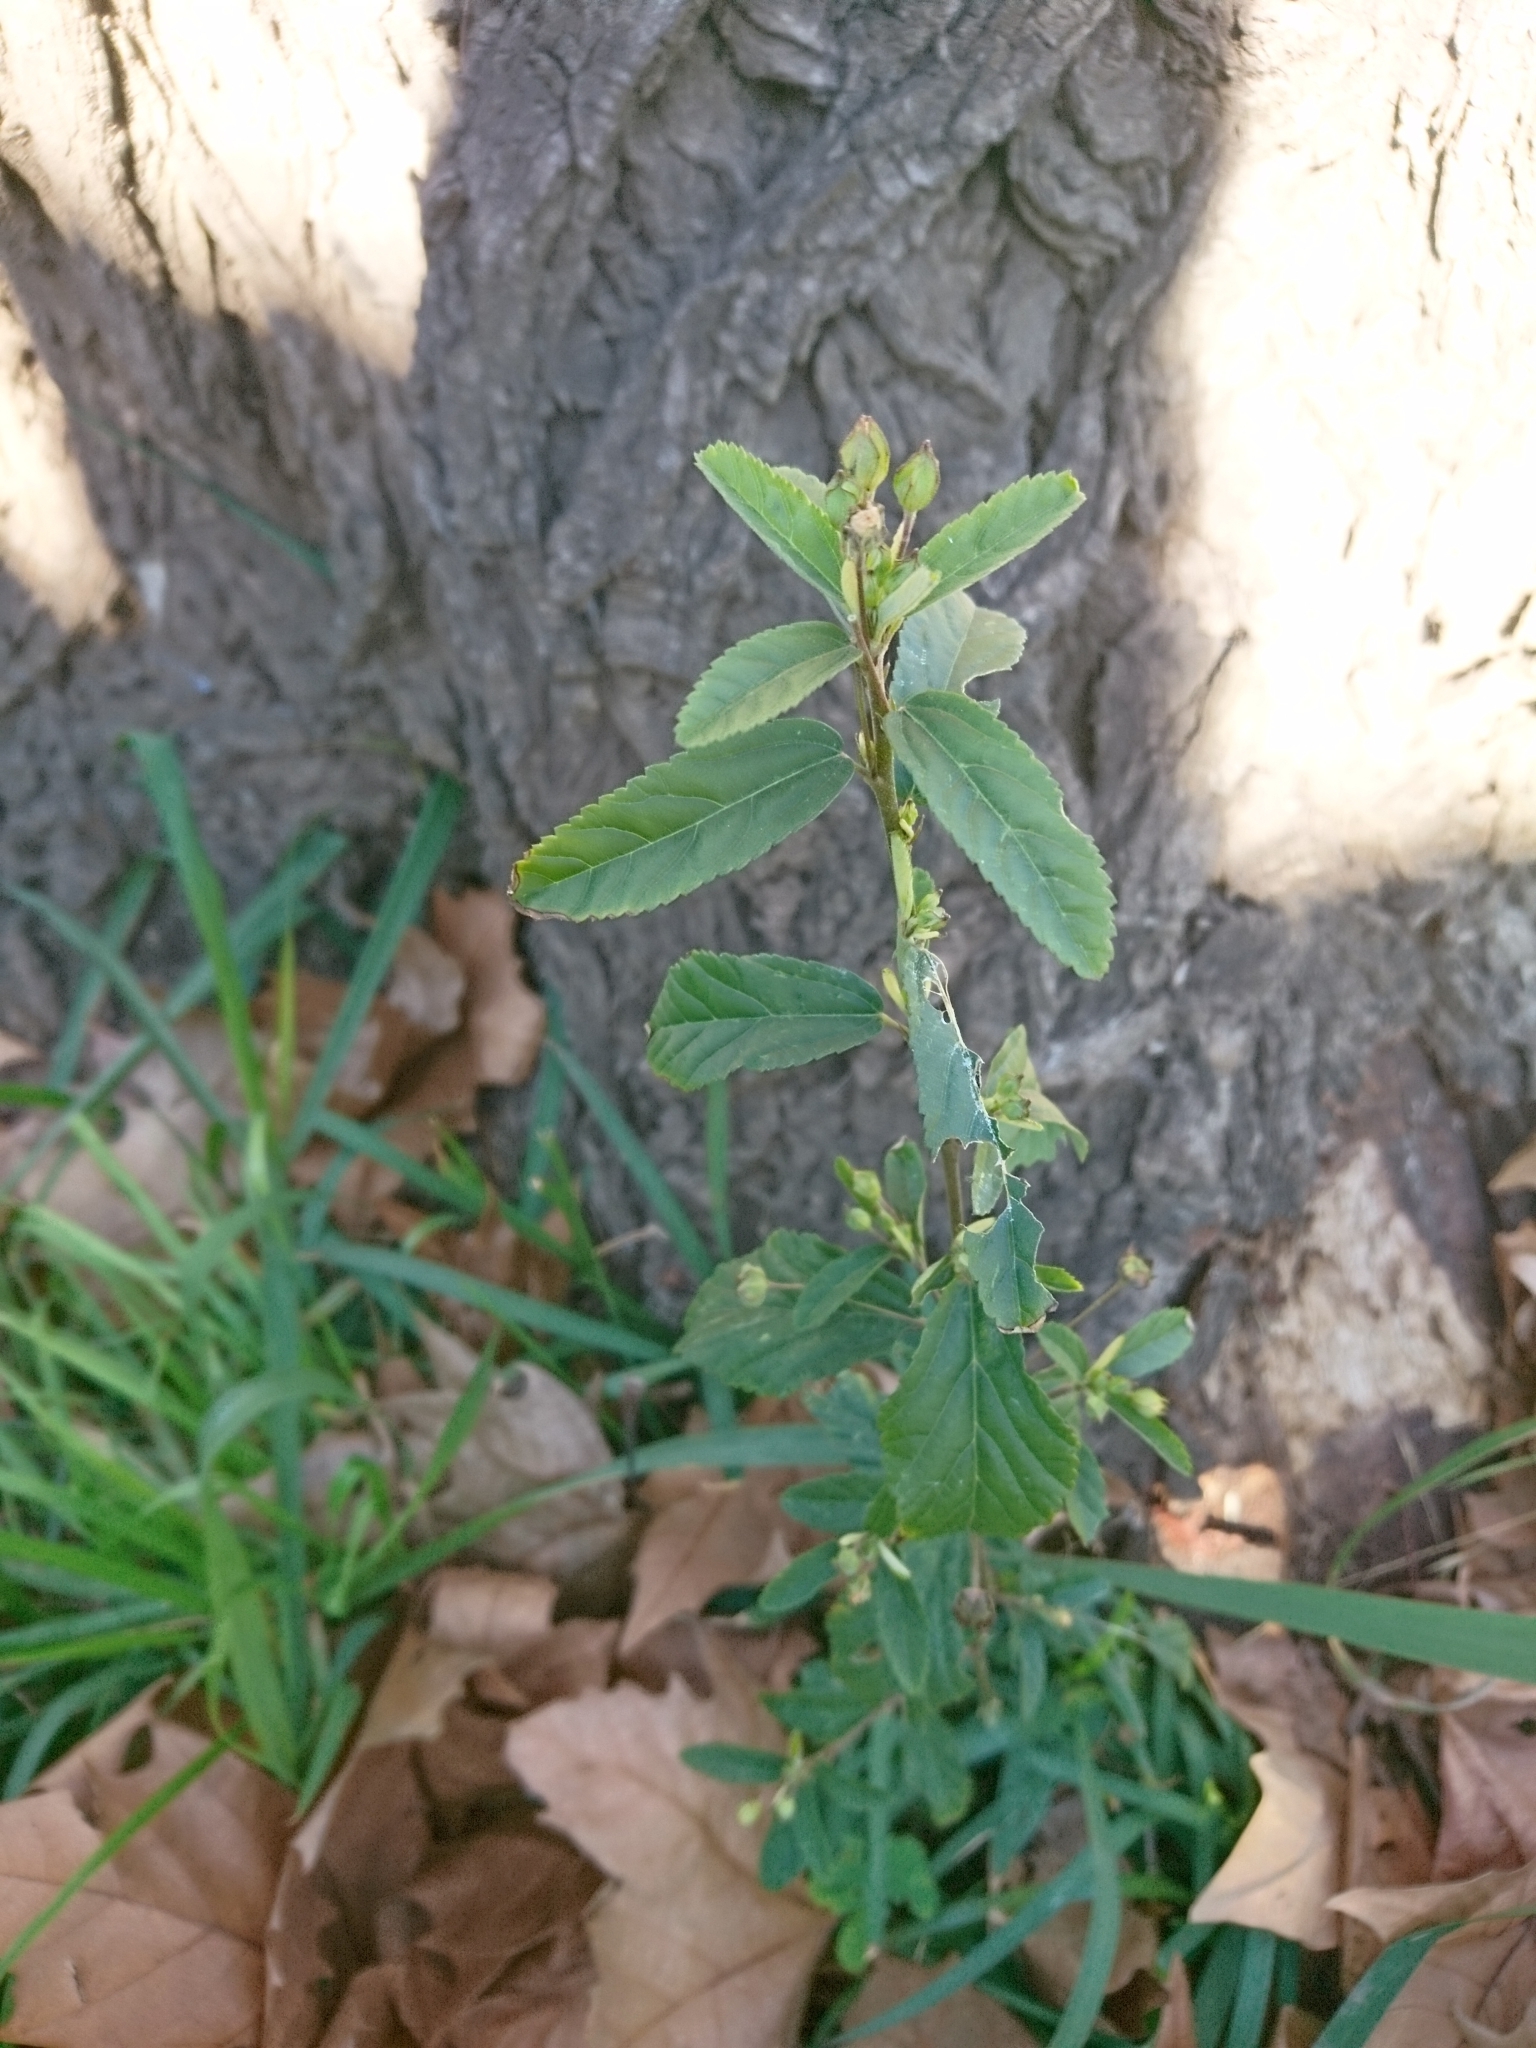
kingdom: Plantae
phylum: Tracheophyta
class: Magnoliopsida
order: Malvales
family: Malvaceae
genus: Sida
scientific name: Sida rhombifolia
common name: Queensland-hemp
